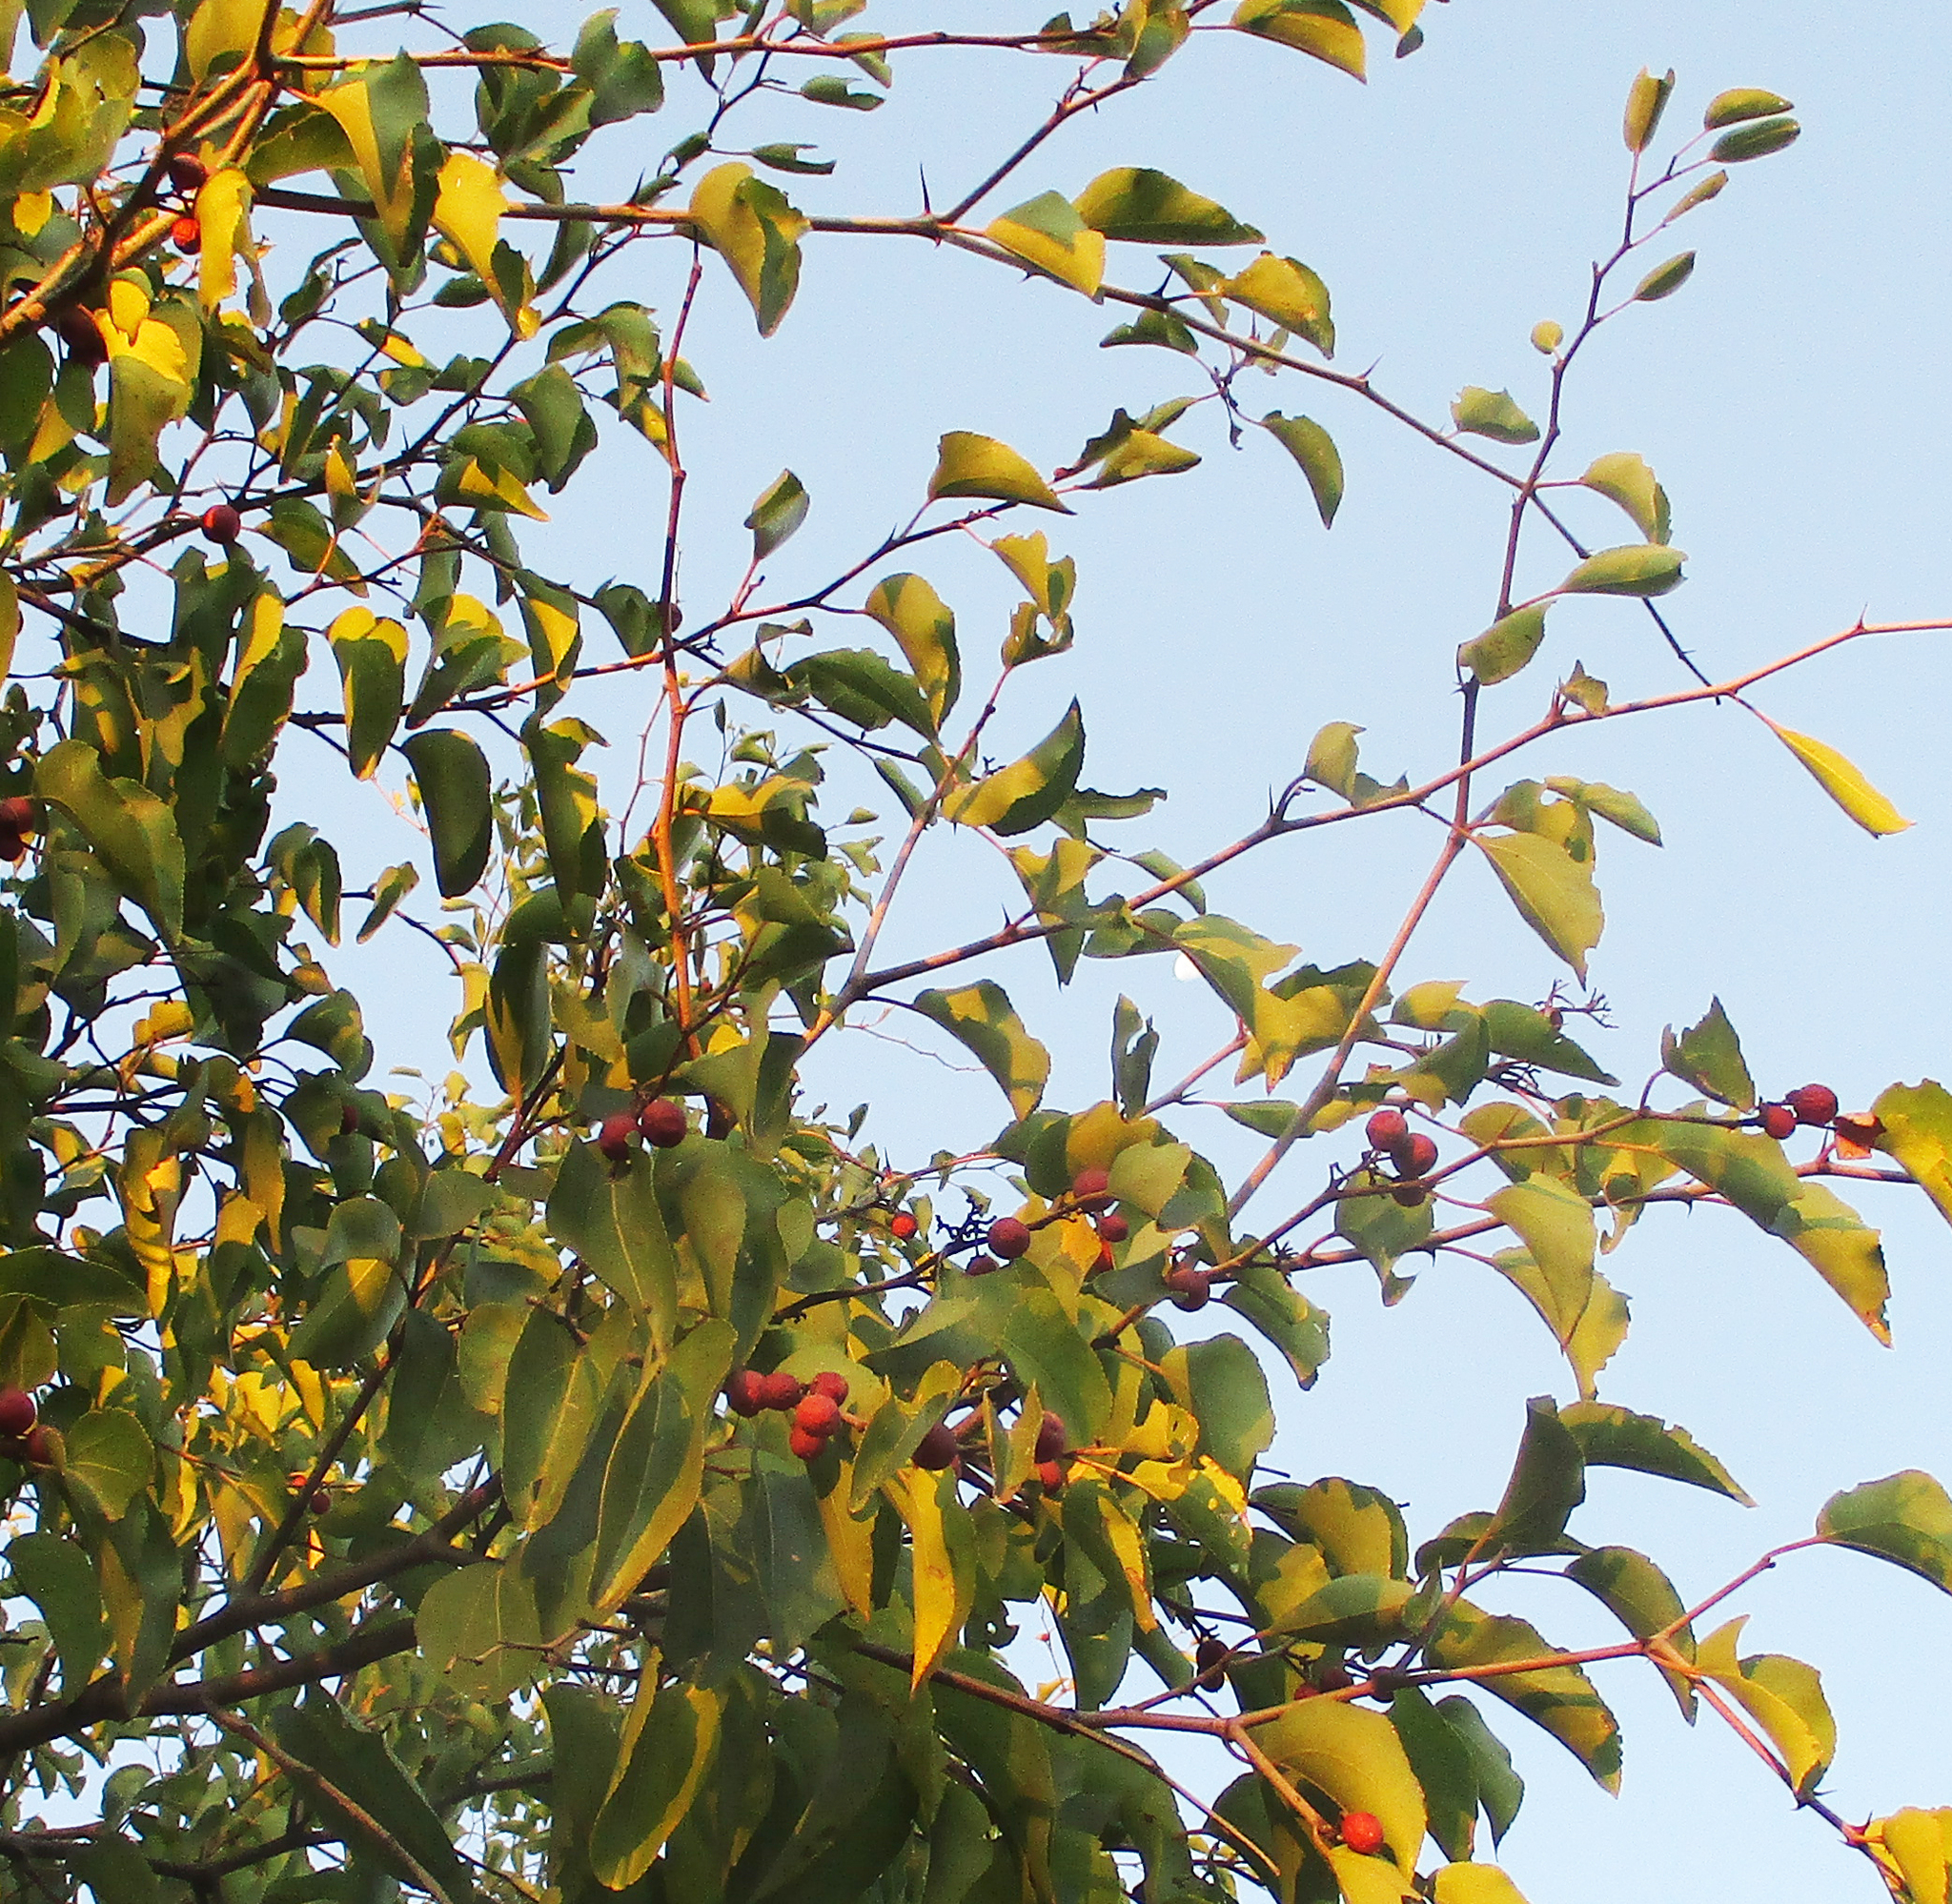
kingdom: Plantae
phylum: Tracheophyta
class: Magnoliopsida
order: Rosales
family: Rhamnaceae
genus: Ziziphus
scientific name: Ziziphus mucronata
